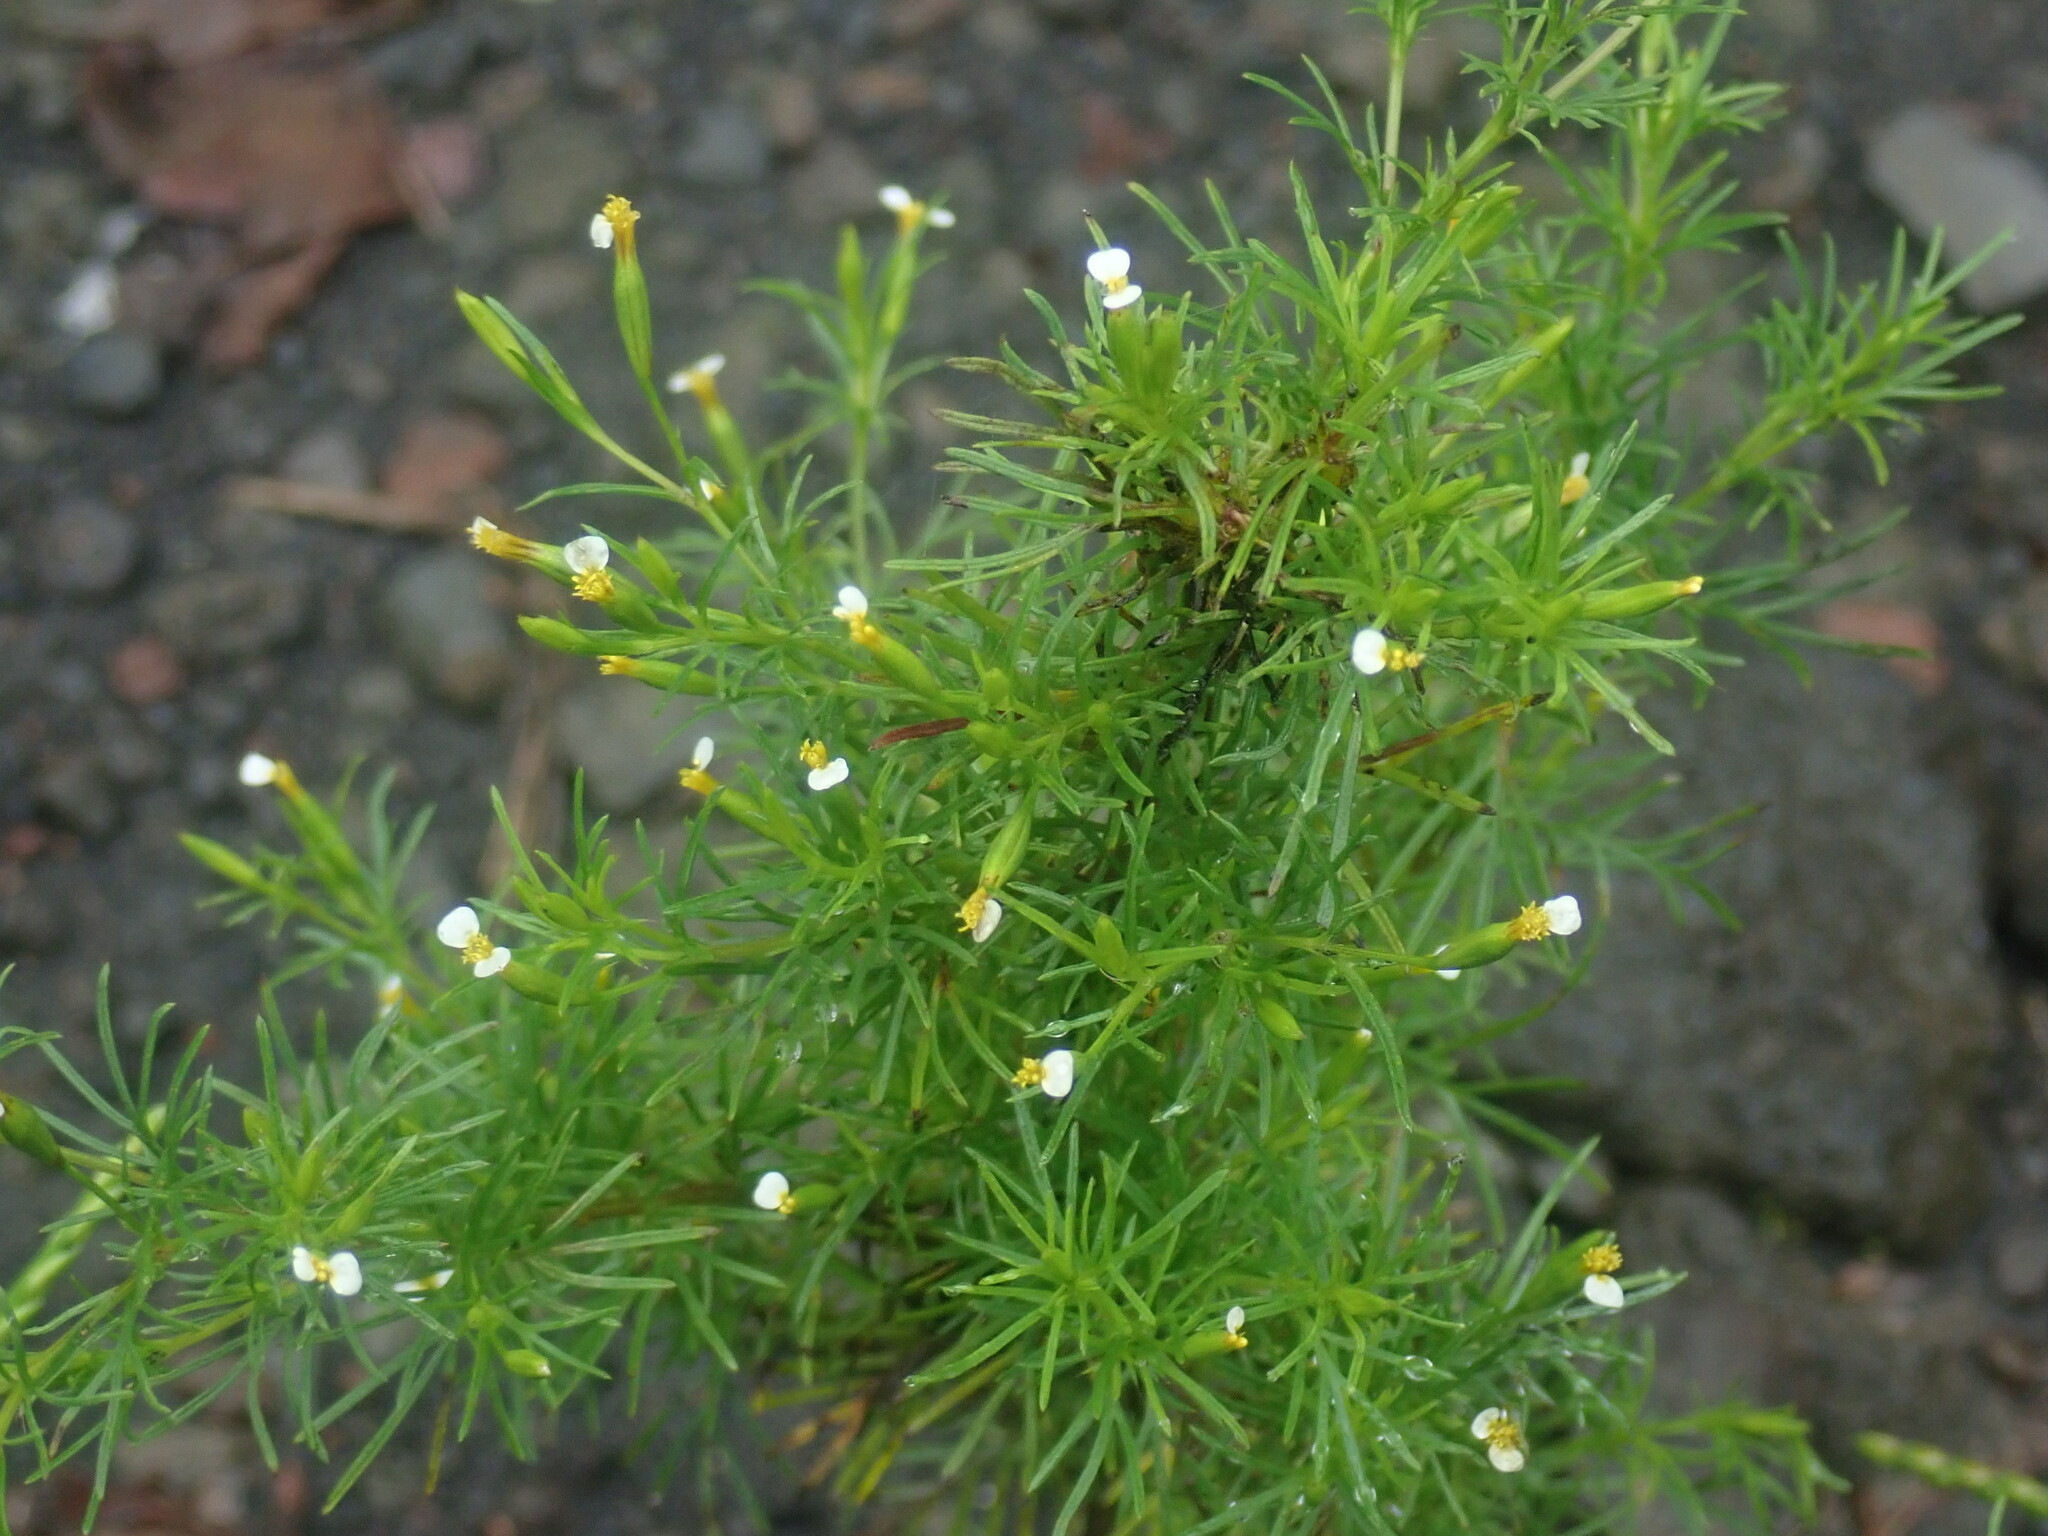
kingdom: Plantae
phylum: Tracheophyta
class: Magnoliopsida
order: Asterales
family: Asteraceae
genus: Tagetes
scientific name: Tagetes filifolia
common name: Lesser marigold
